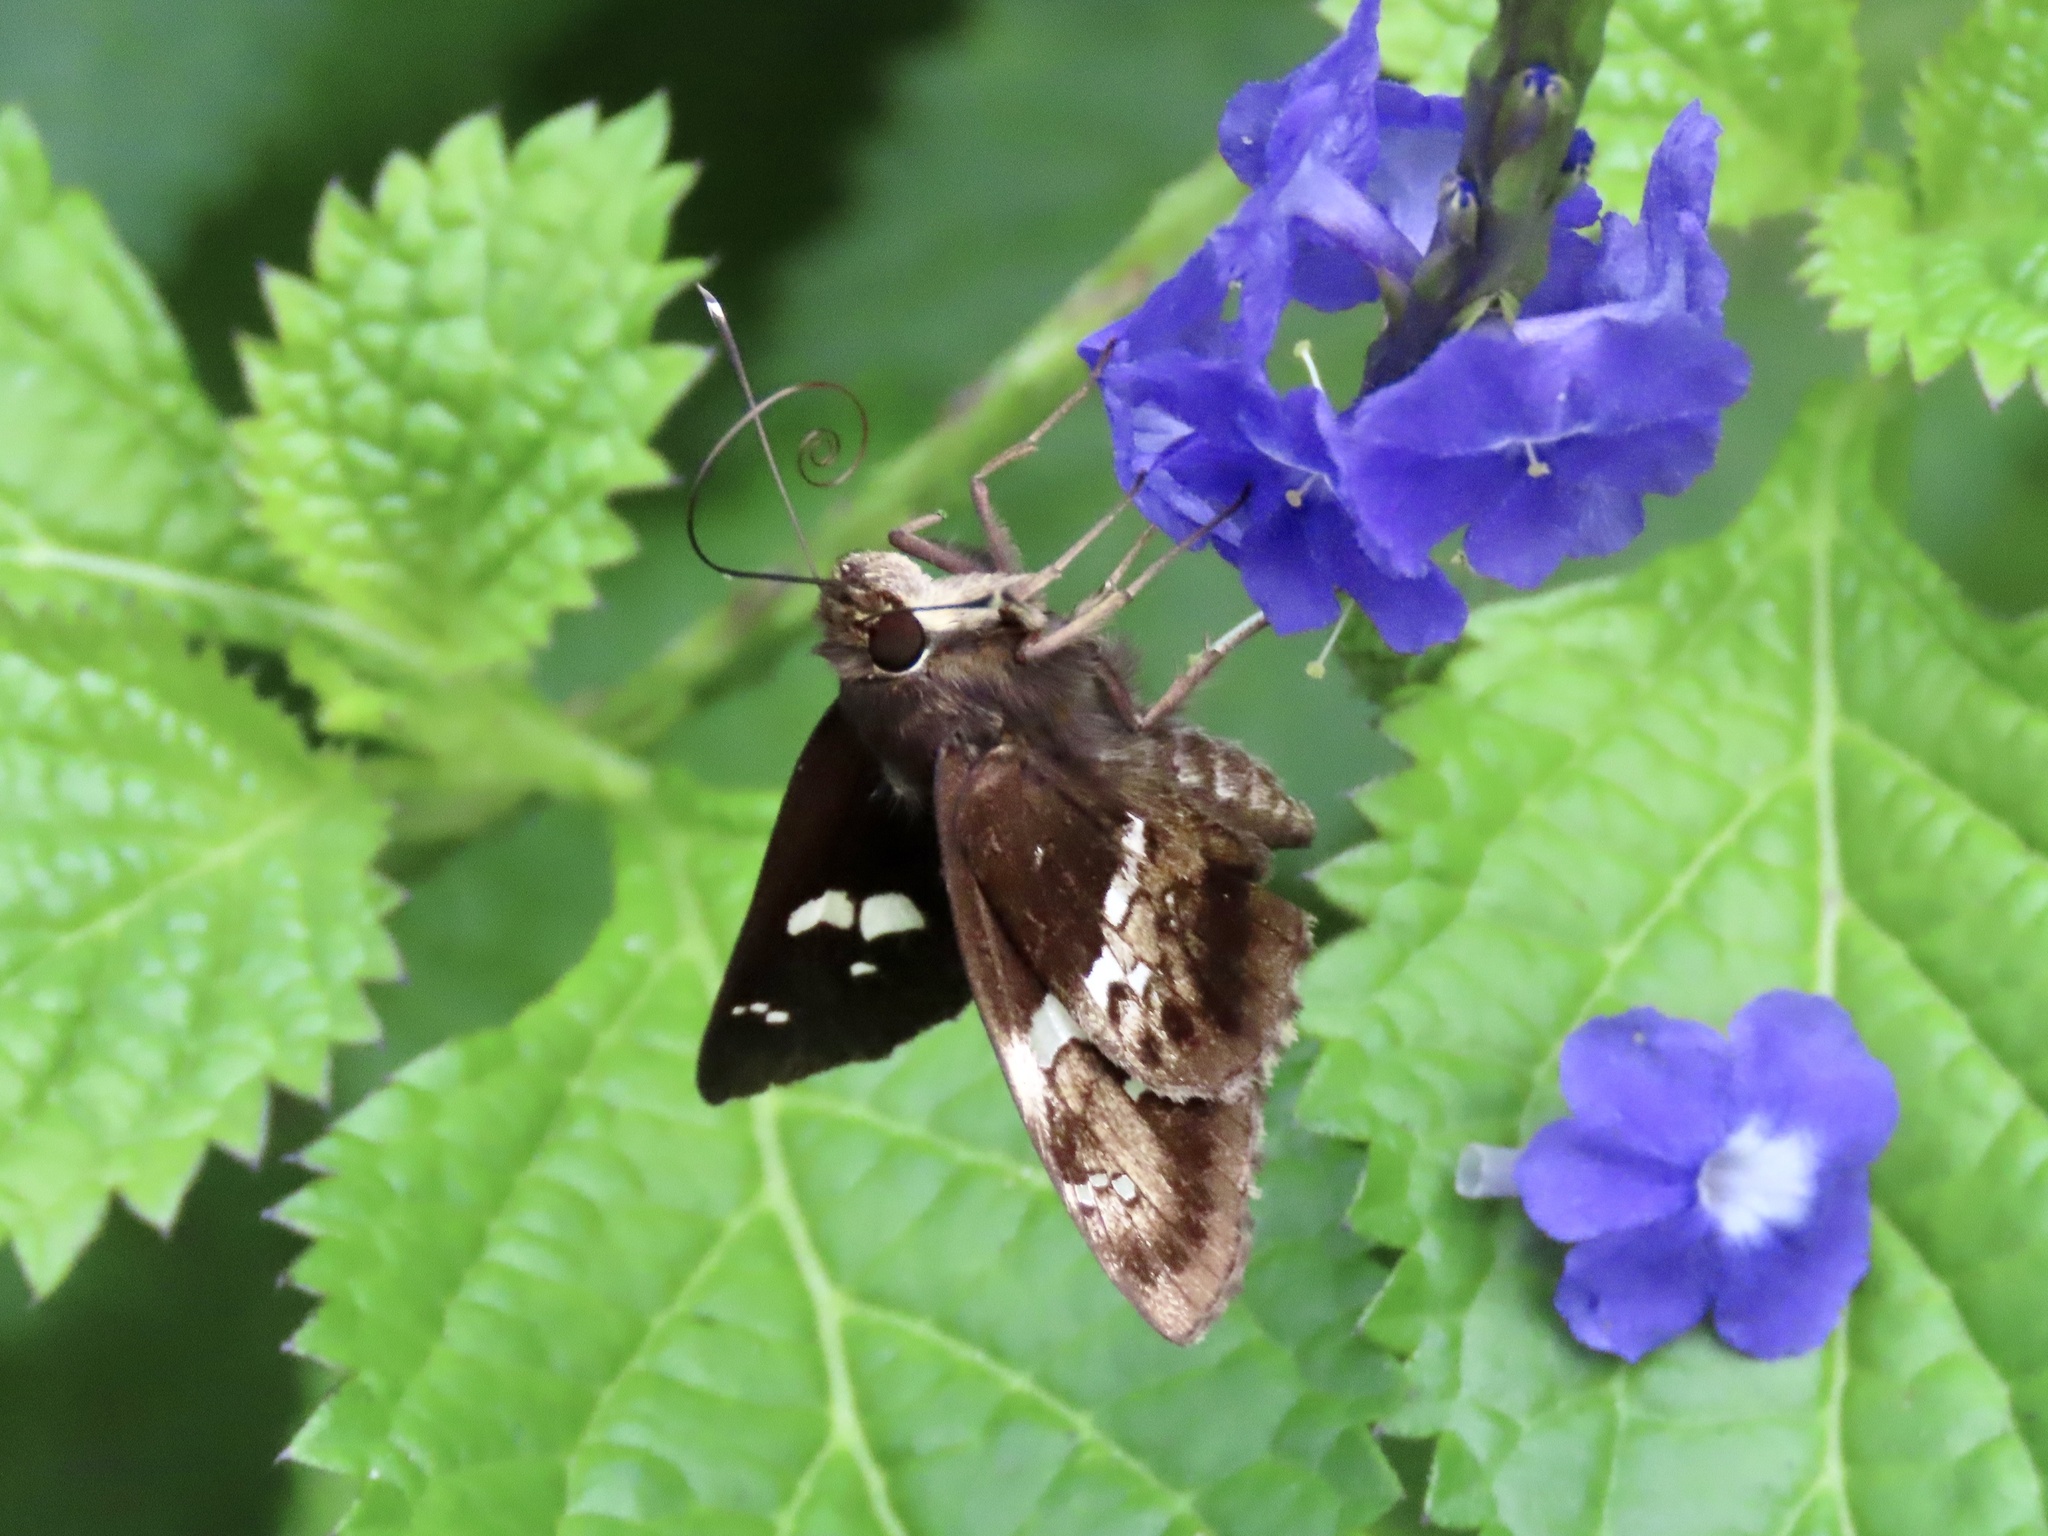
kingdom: Animalia
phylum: Arthropoda
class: Insecta
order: Lepidoptera
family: Hesperiidae
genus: Hyarotis
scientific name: Hyarotis adrastus
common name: Tree flitter
